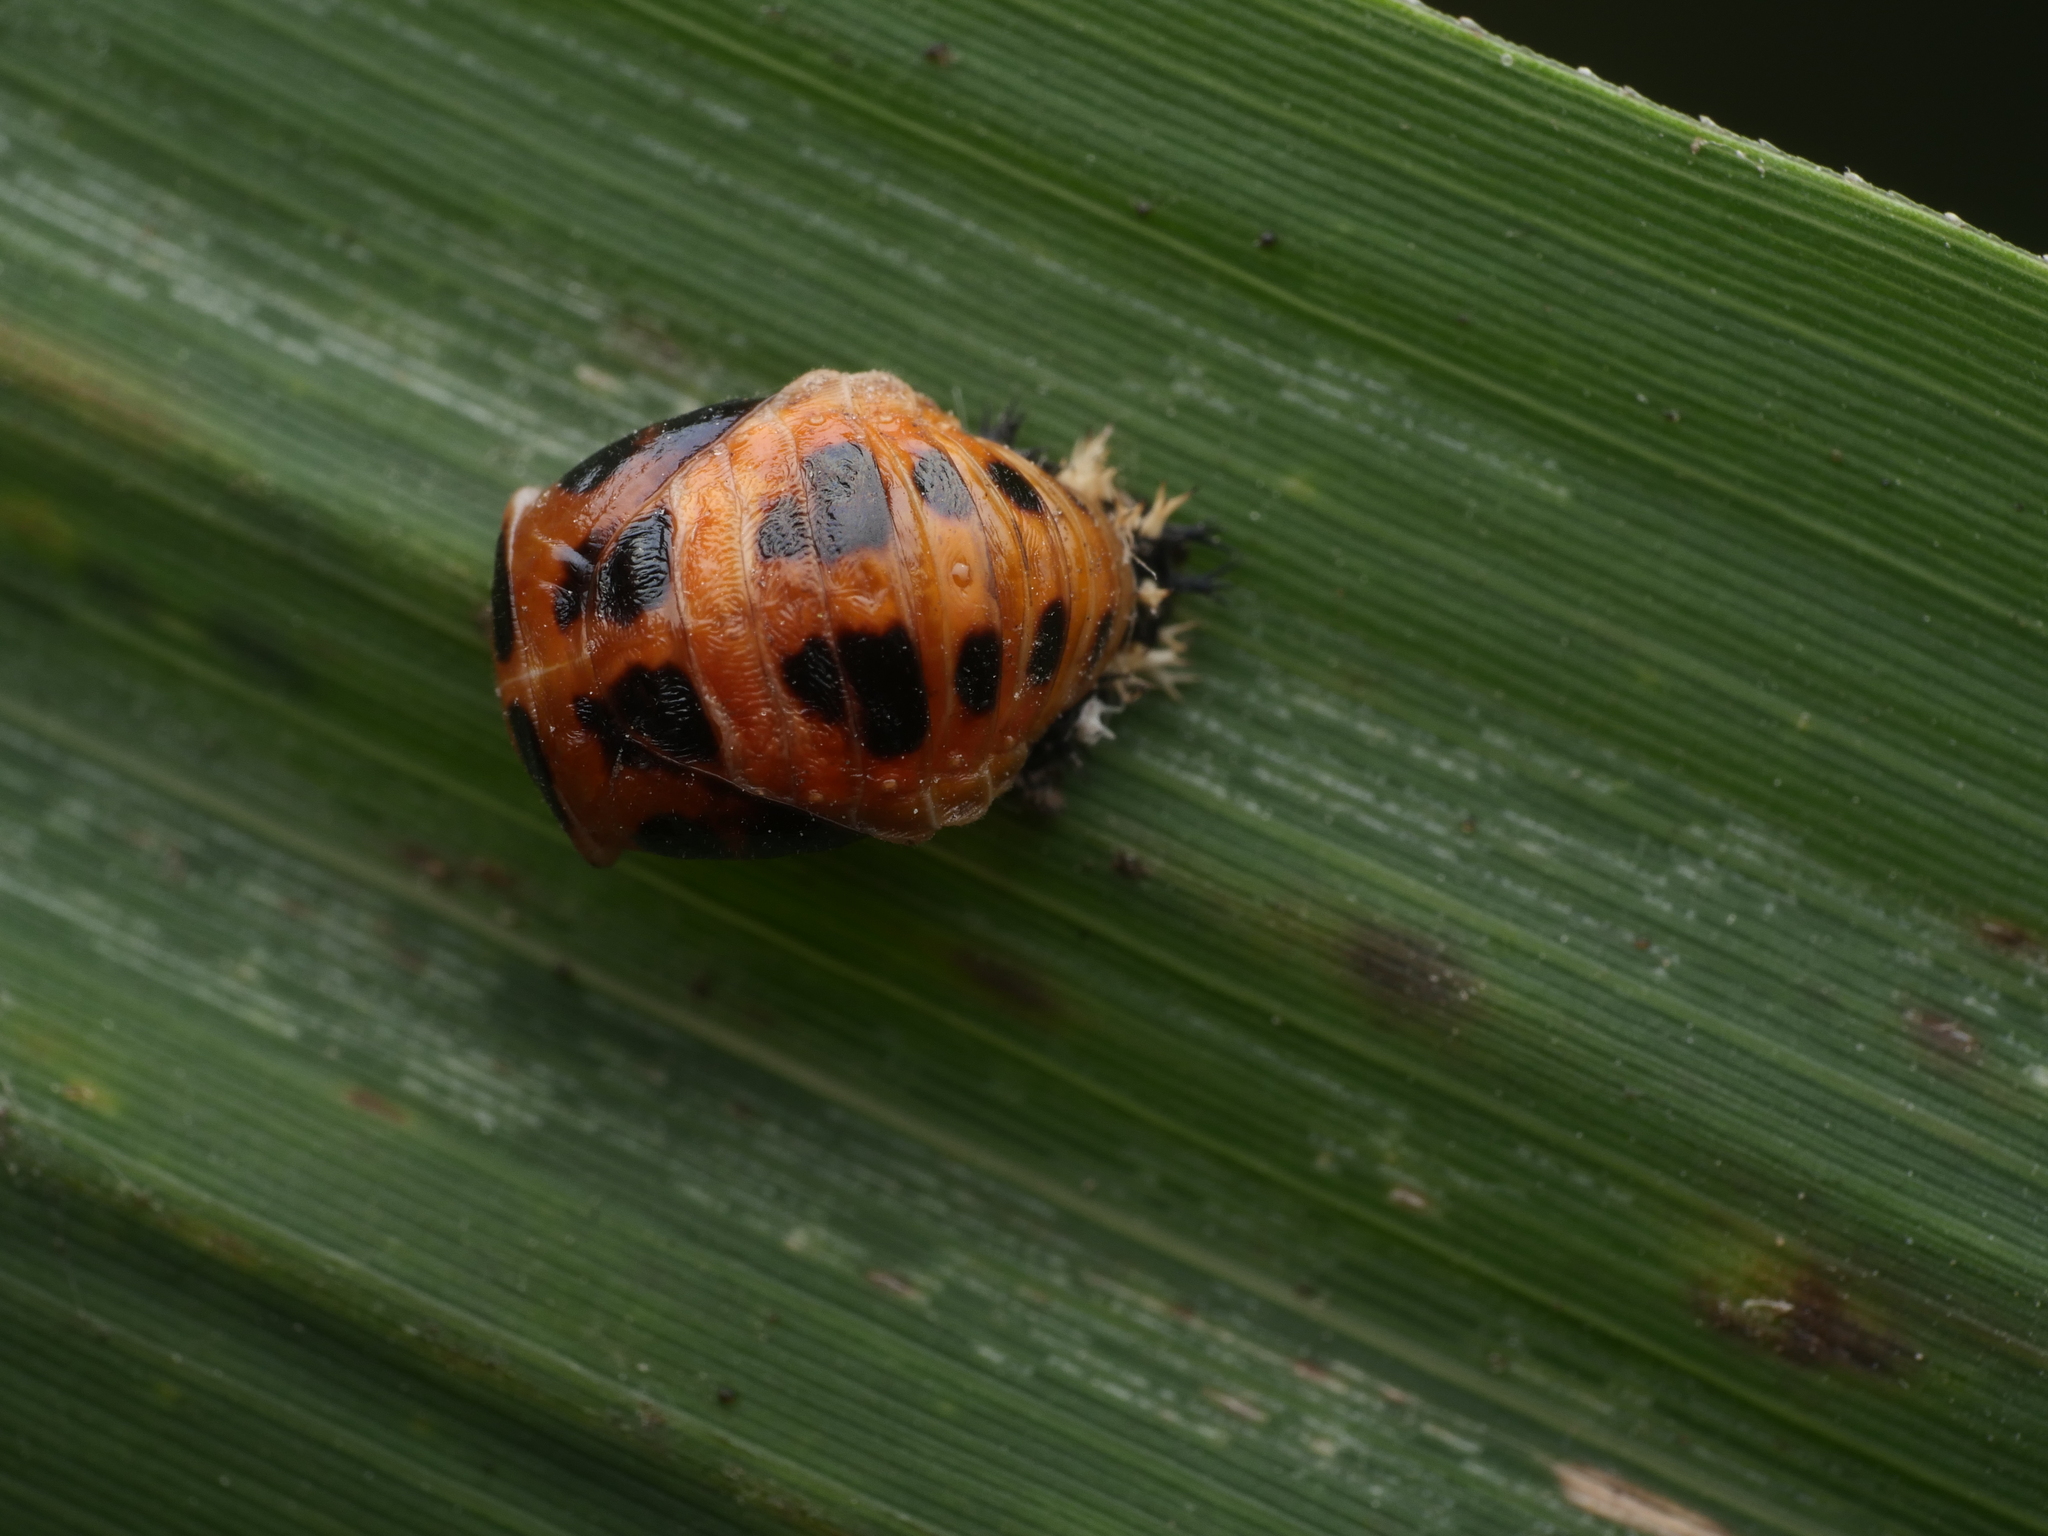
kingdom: Animalia
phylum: Arthropoda
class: Insecta
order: Coleoptera
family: Coccinellidae
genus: Harmonia
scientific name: Harmonia axyridis
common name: Harlequin ladybird
